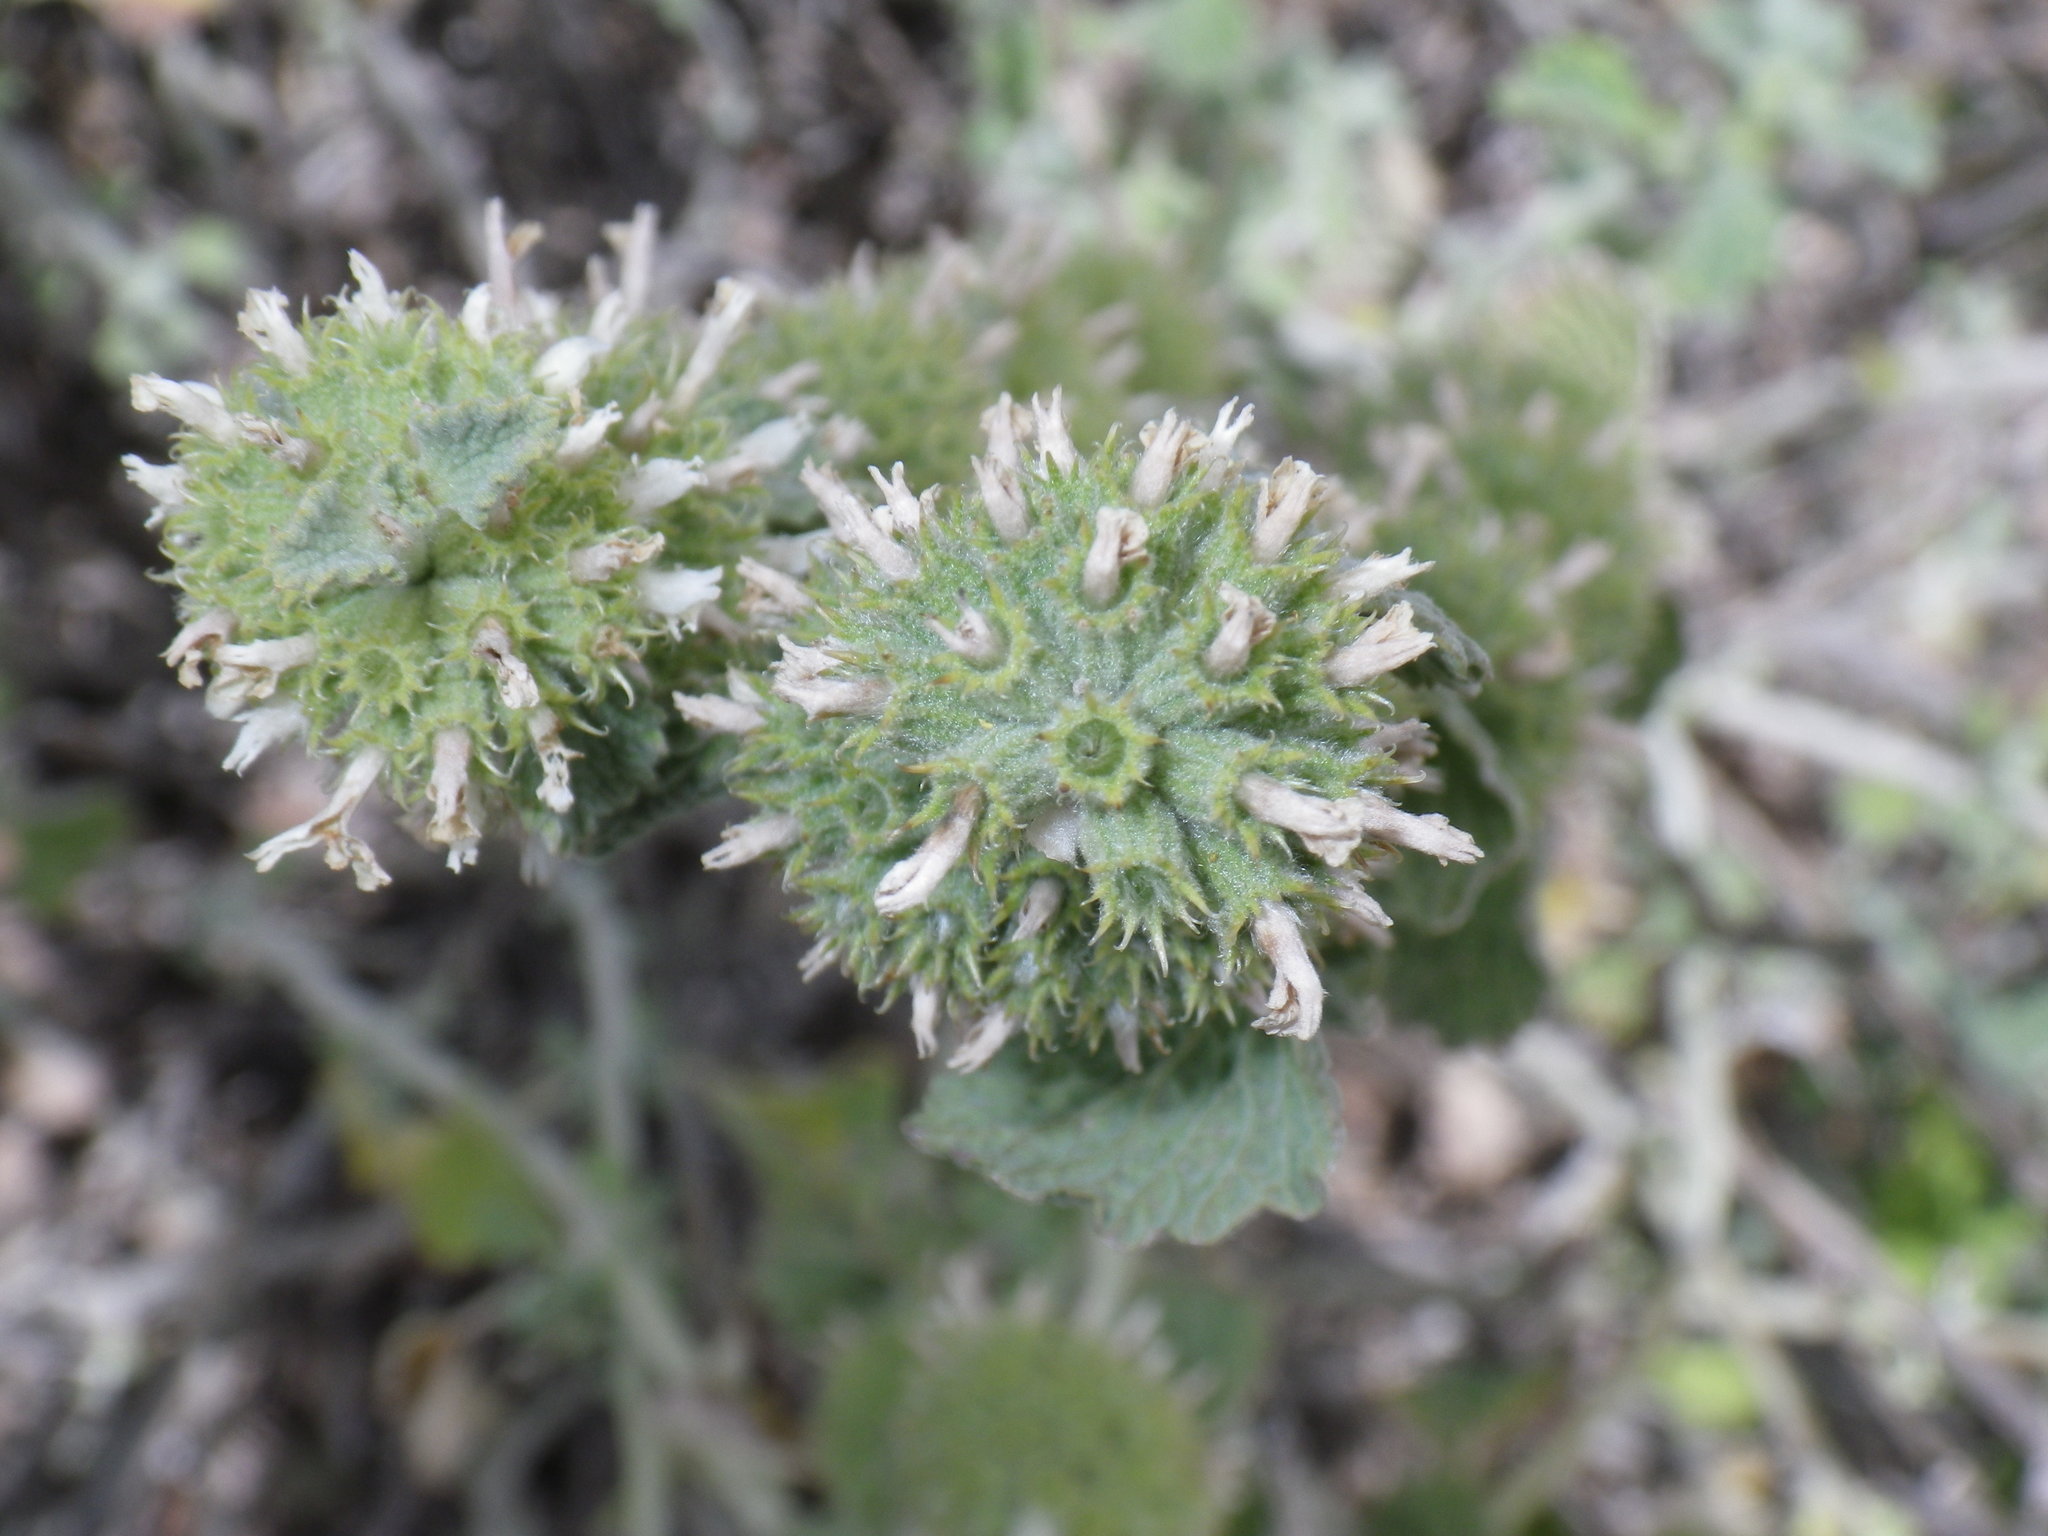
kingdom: Plantae
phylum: Tracheophyta
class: Magnoliopsida
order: Lamiales
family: Lamiaceae
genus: Marrubium
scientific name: Marrubium vulgare
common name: Horehound
